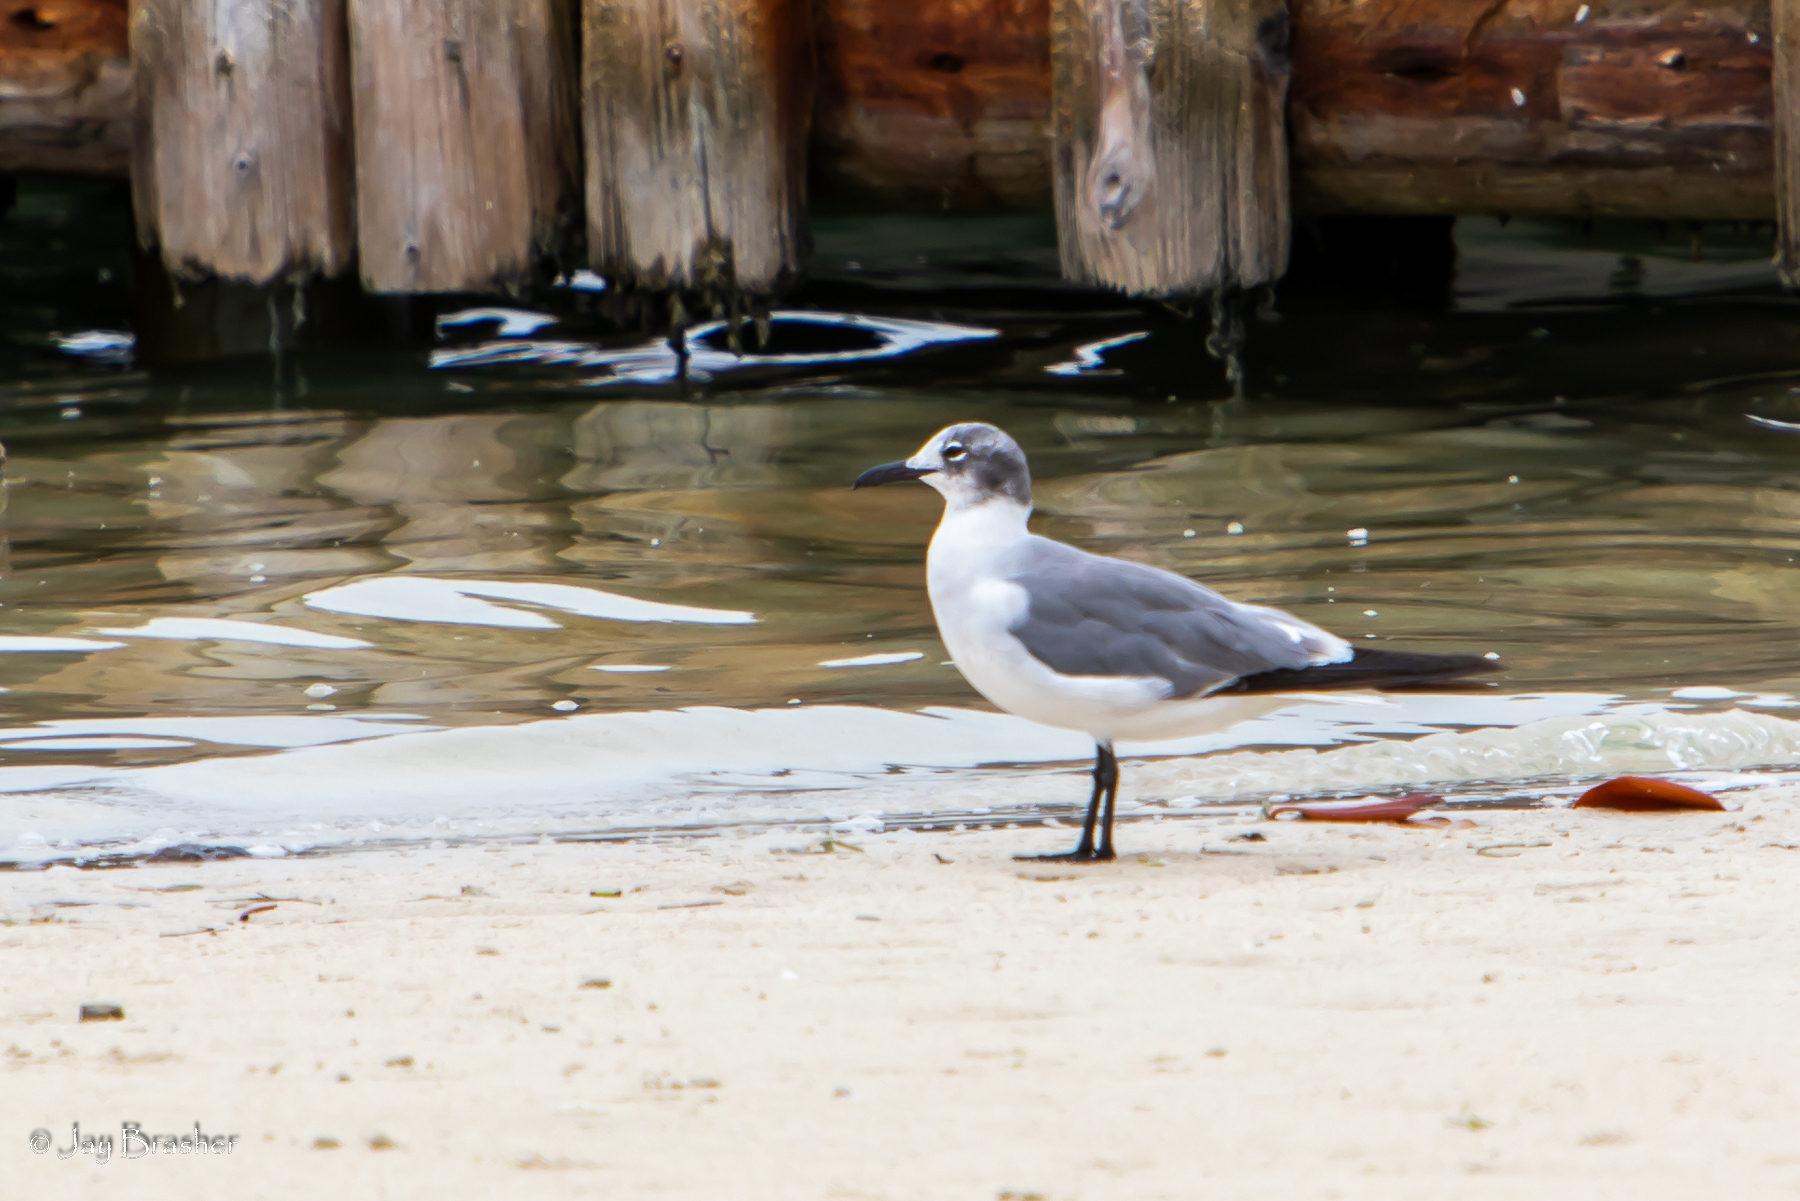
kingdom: Animalia
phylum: Chordata
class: Aves
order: Charadriiformes
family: Laridae
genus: Leucophaeus
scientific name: Leucophaeus atricilla
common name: Laughing gull
